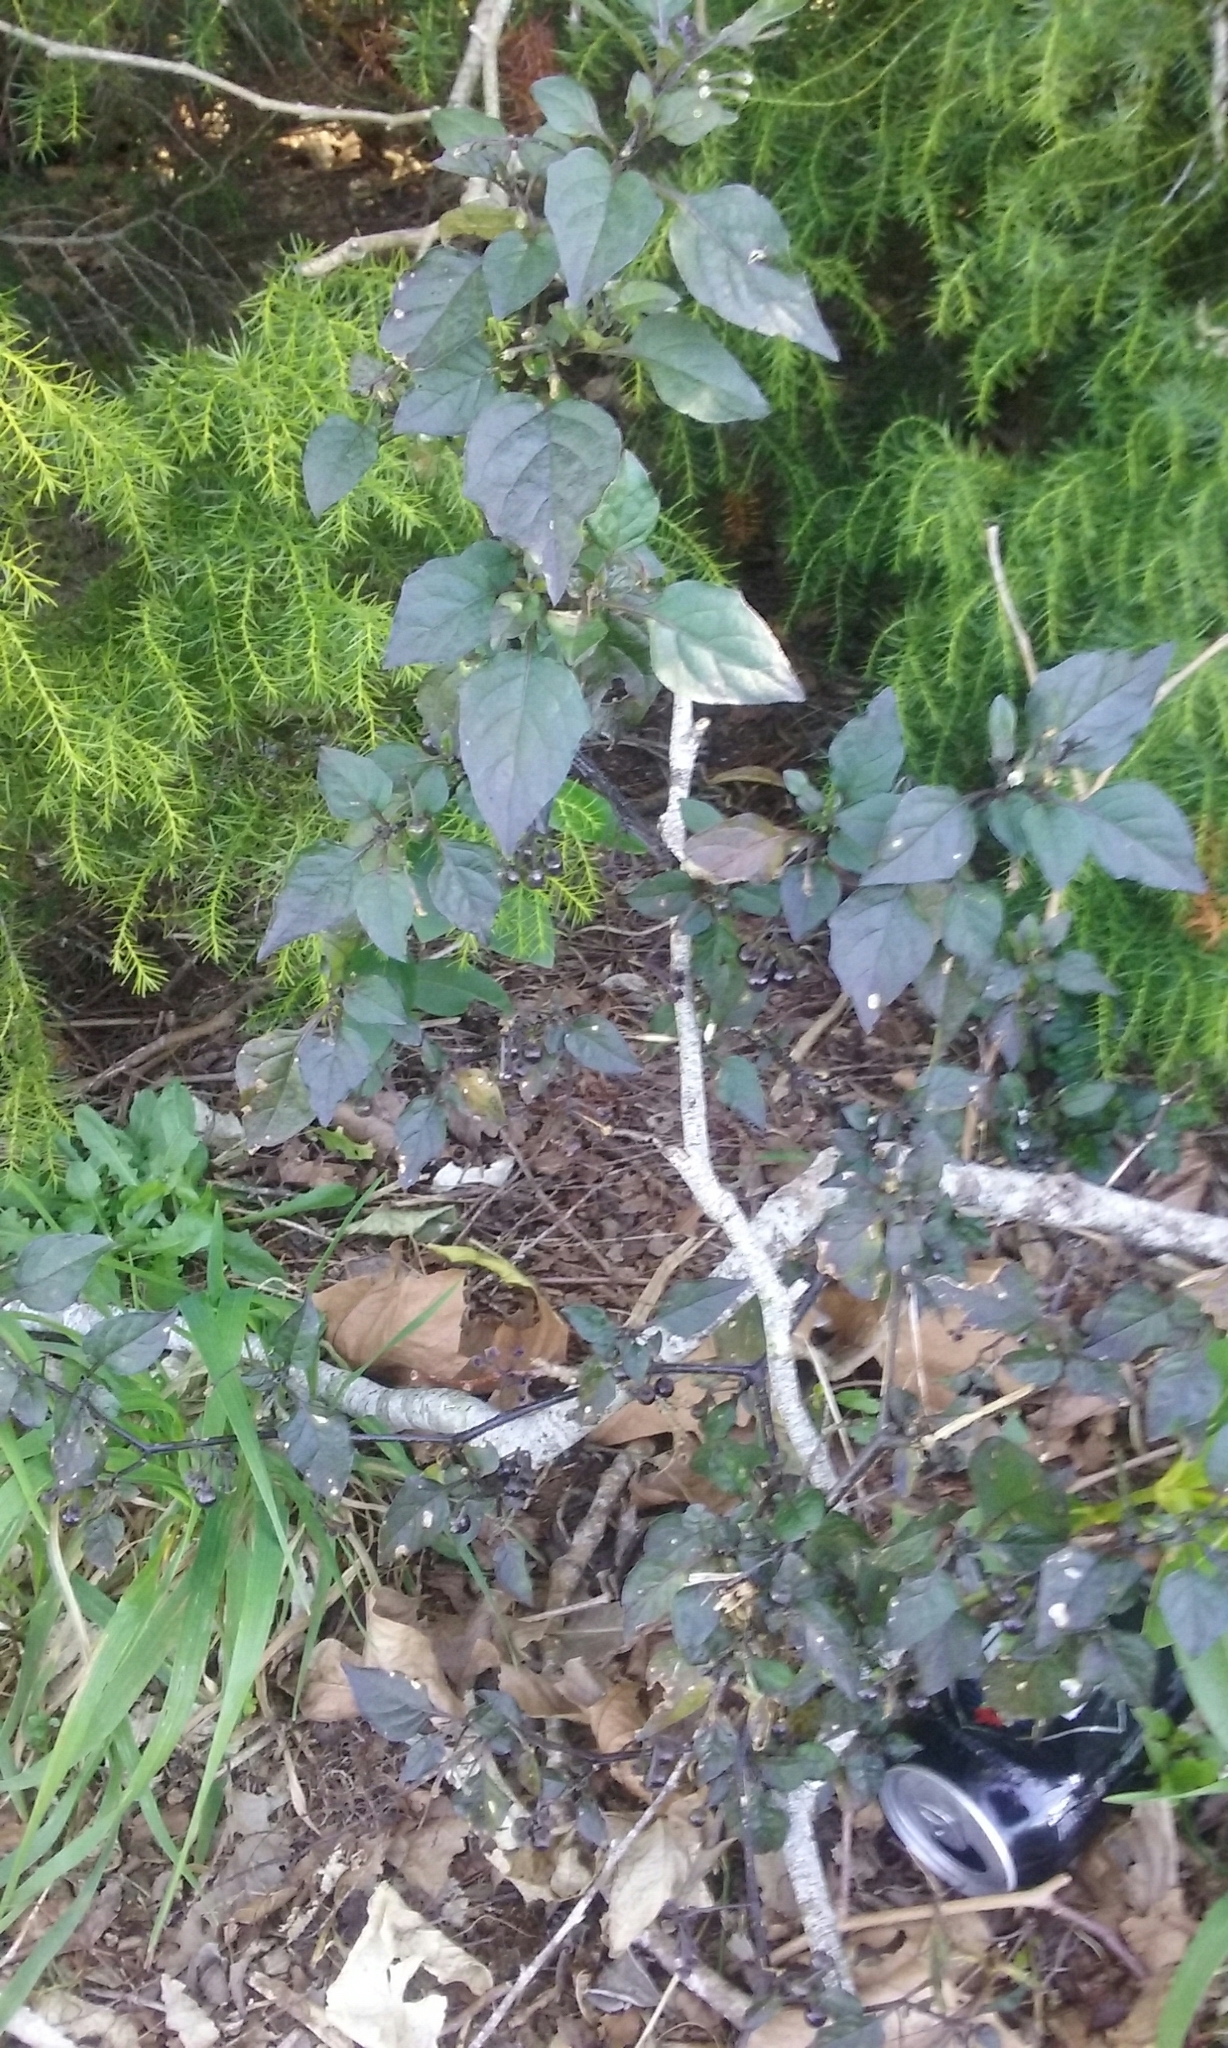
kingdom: Plantae
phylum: Tracheophyta
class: Magnoliopsida
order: Solanales
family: Solanaceae
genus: Solanum
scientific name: Solanum nigrum
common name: Black nightshade
